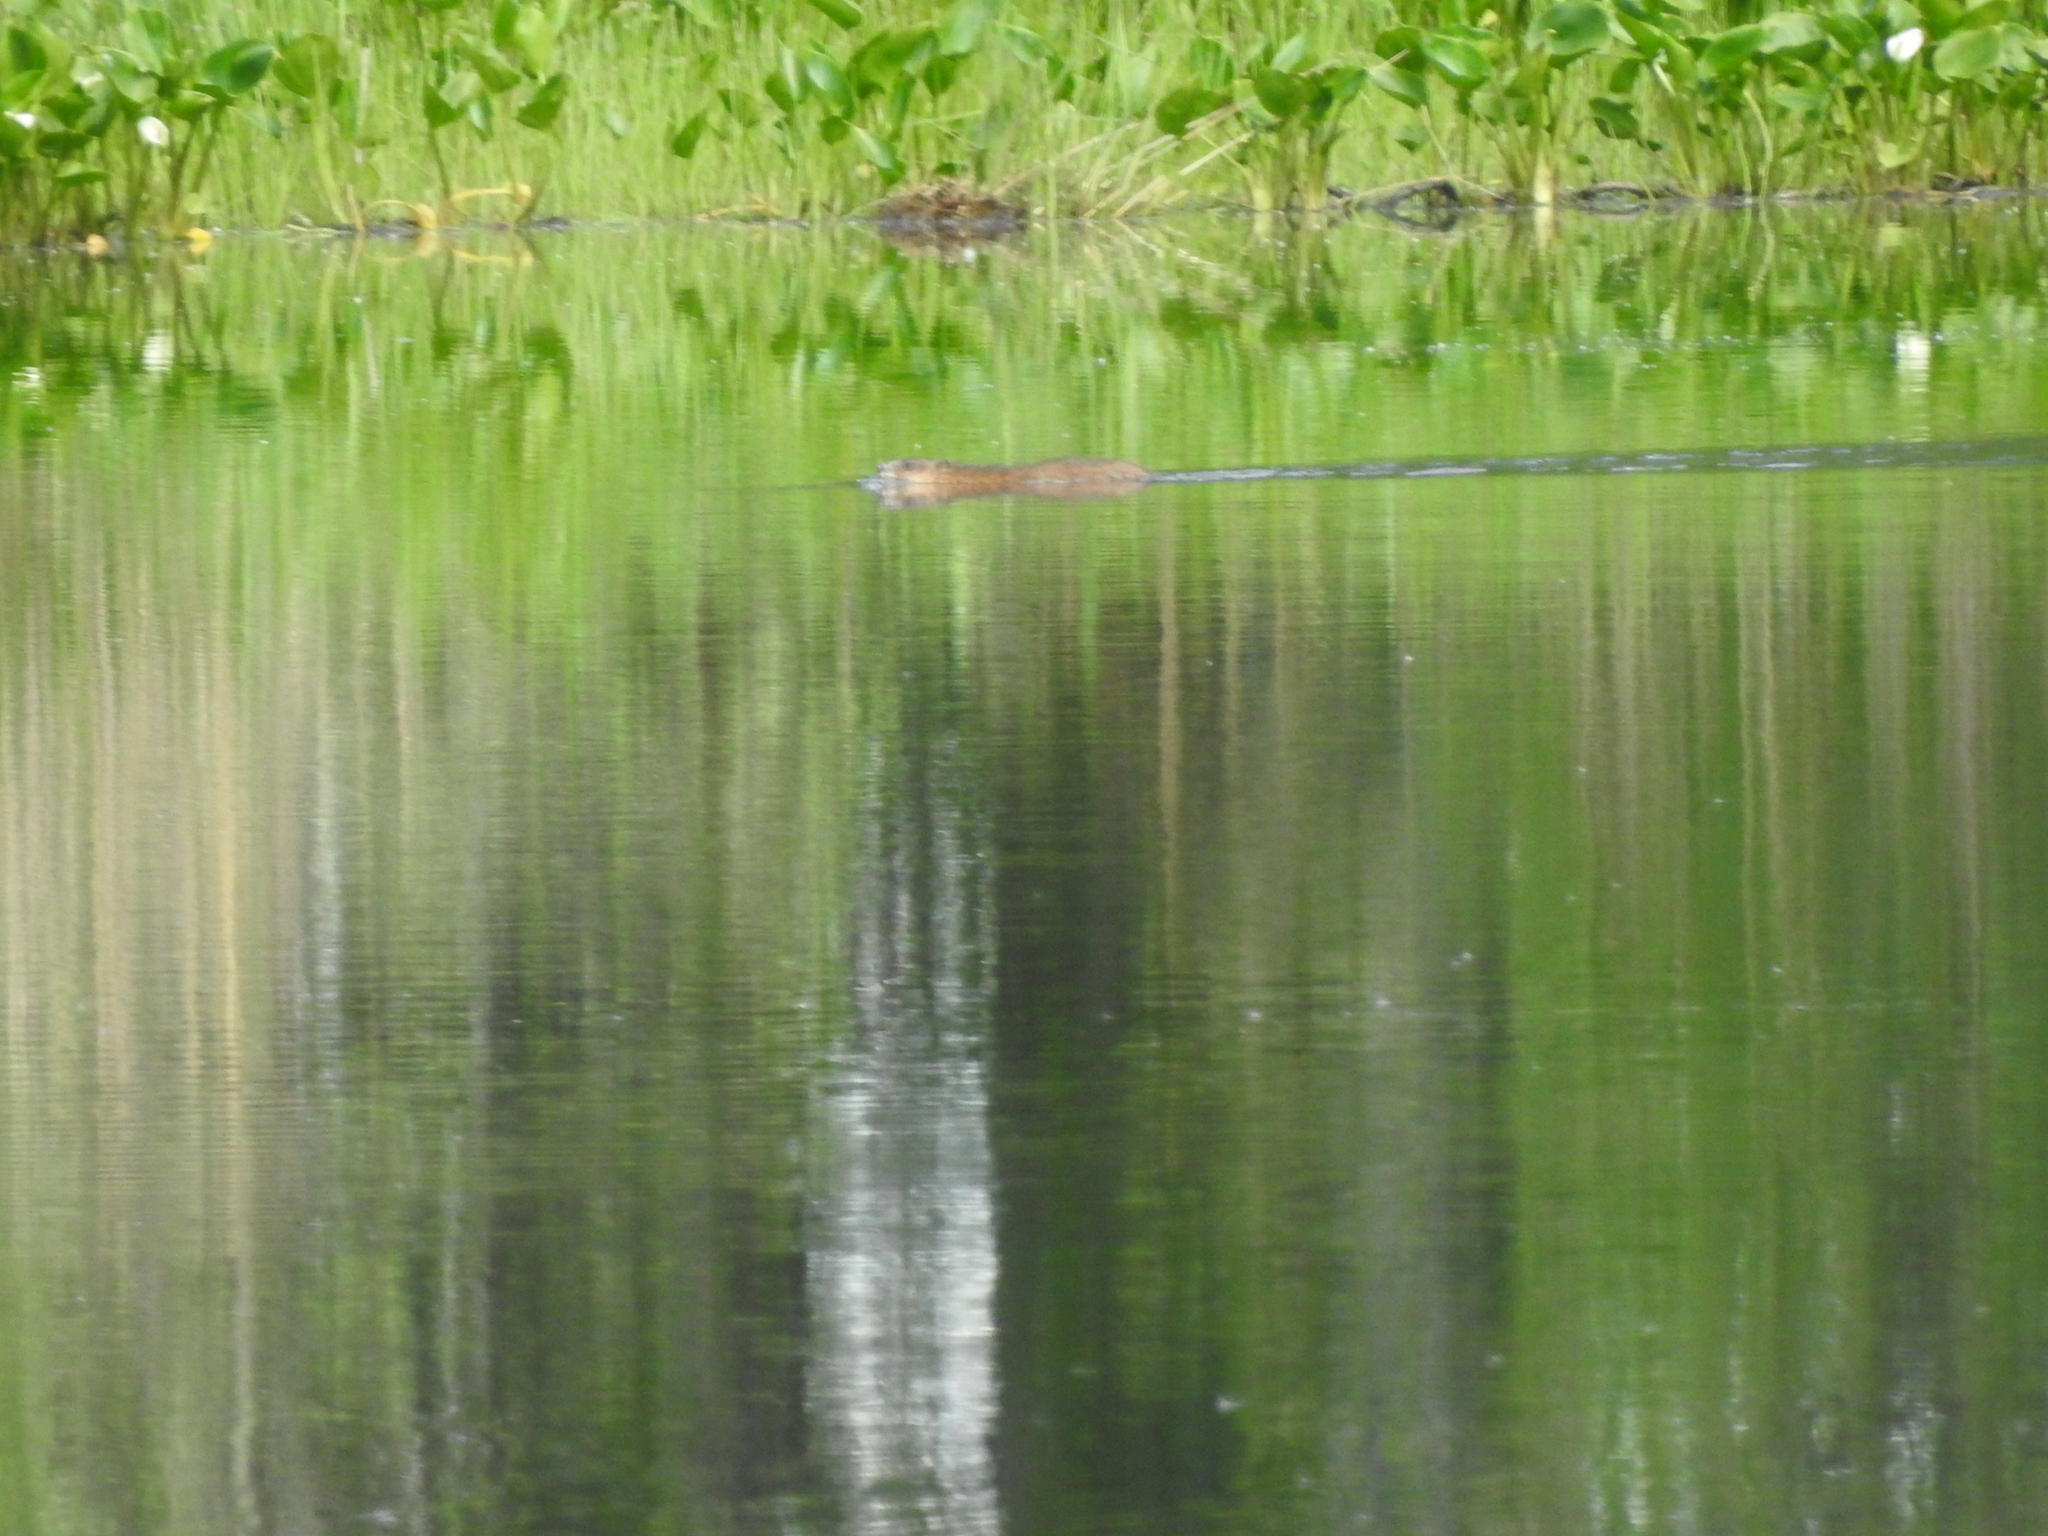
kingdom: Animalia
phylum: Chordata
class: Mammalia
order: Rodentia
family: Cricetidae
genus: Ondatra
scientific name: Ondatra zibethicus
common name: Muskrat
